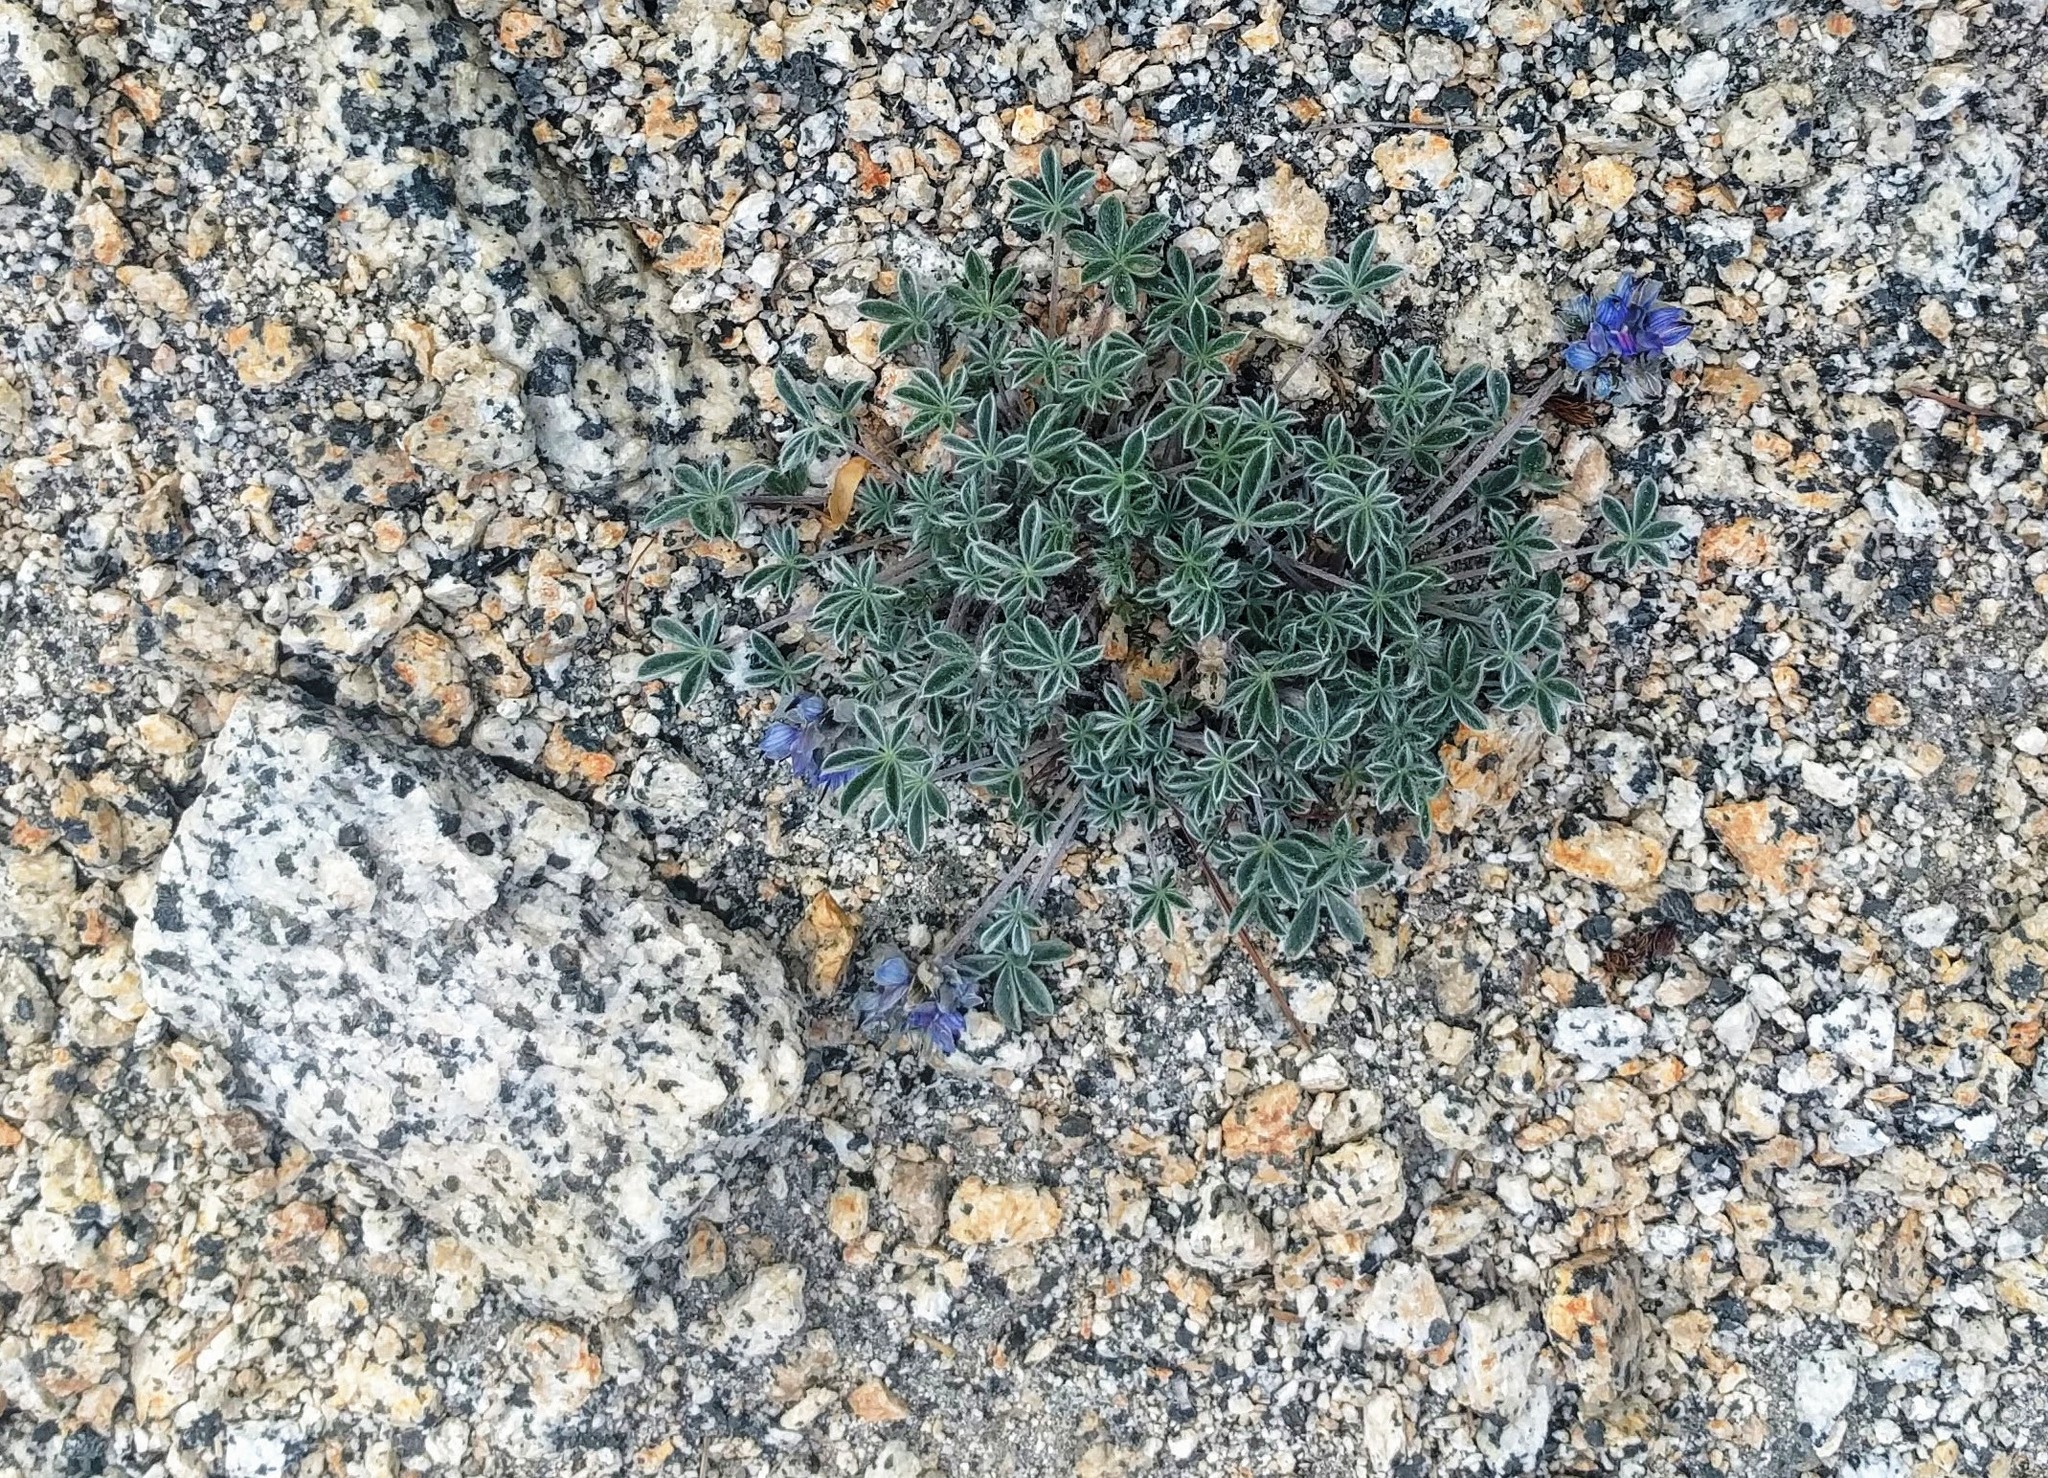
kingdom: Plantae
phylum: Tracheophyta
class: Magnoliopsida
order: Fabales
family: Fabaceae
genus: Lupinus
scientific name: Lupinus sellulus
